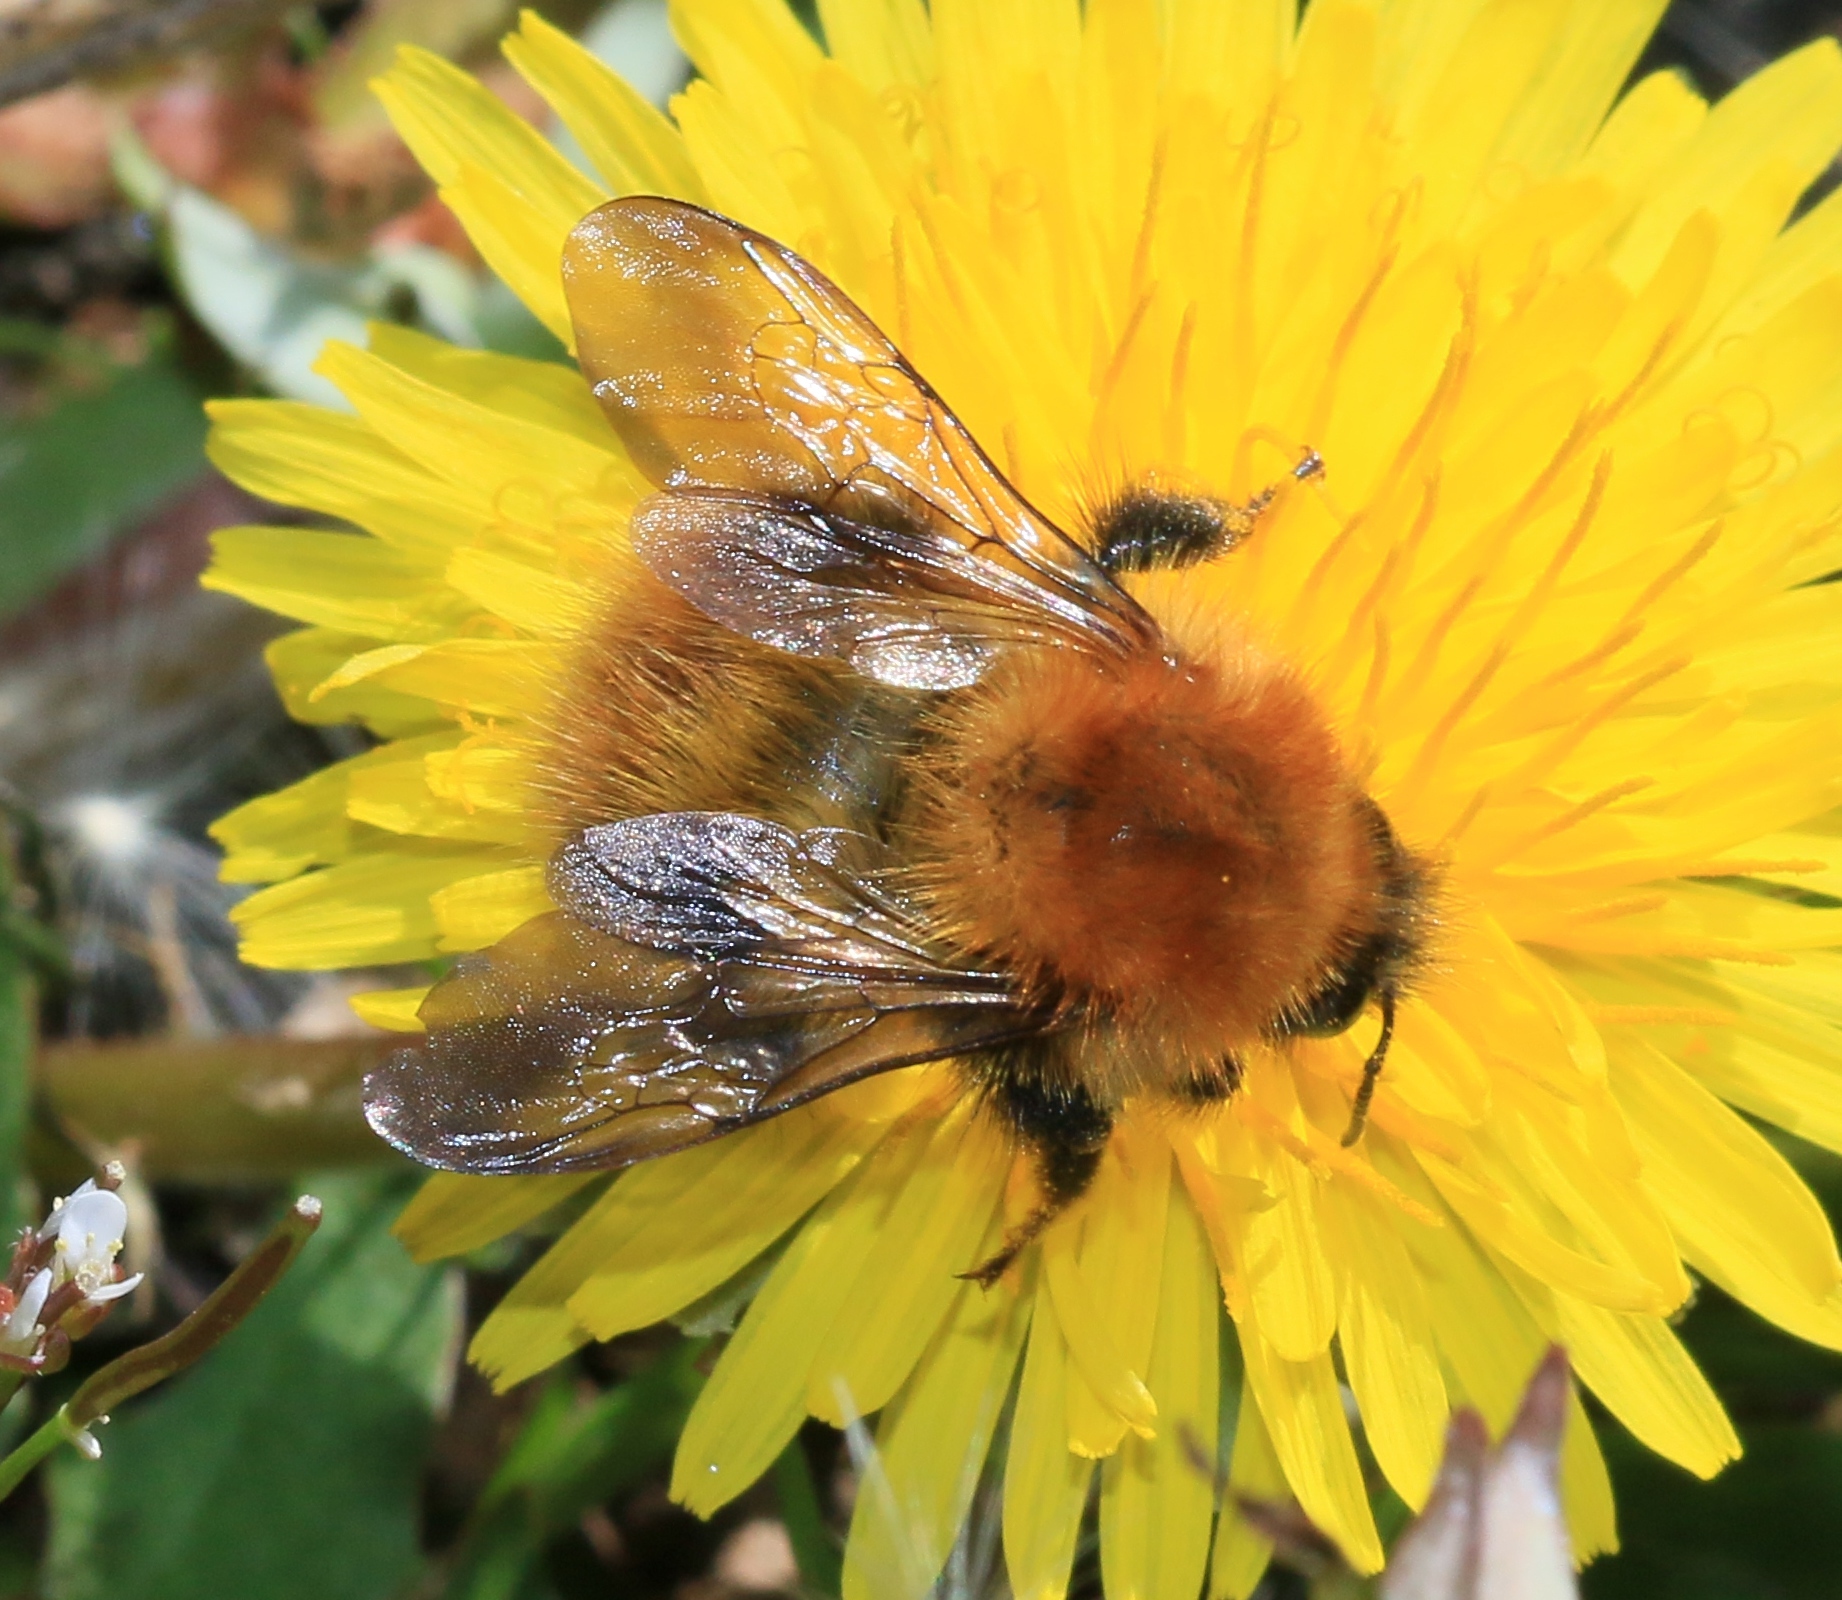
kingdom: Animalia
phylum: Arthropoda
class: Insecta
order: Hymenoptera
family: Apidae
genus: Bombus
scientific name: Bombus pascuorum
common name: Common carder bee
